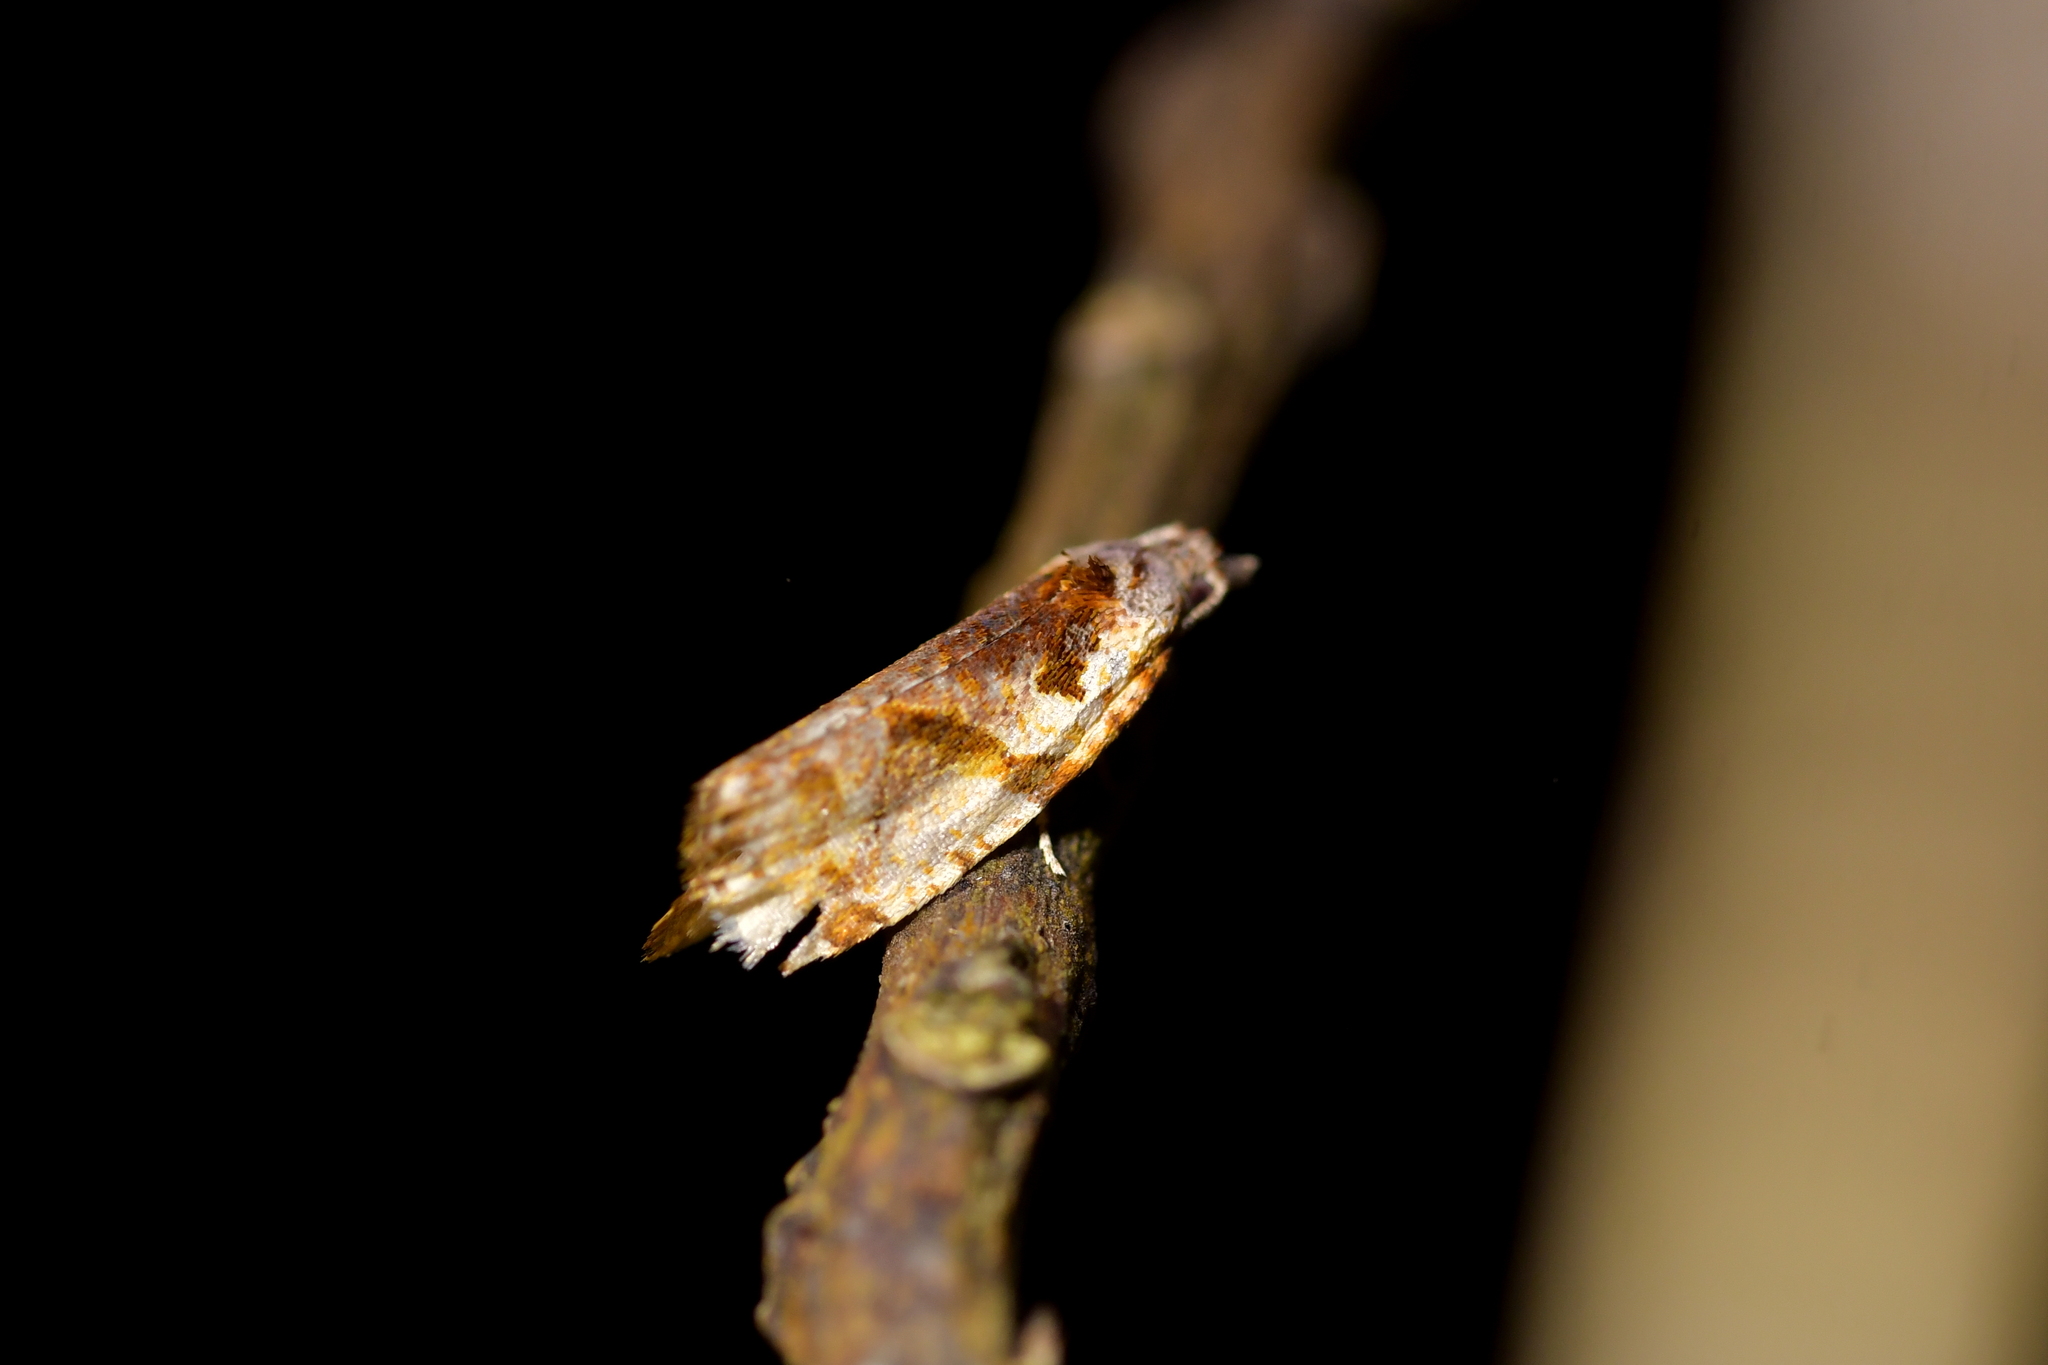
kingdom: Animalia
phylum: Arthropoda
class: Insecta
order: Lepidoptera
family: Tortricidae
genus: Pyrgotis
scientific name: Pyrgotis plagiatana
